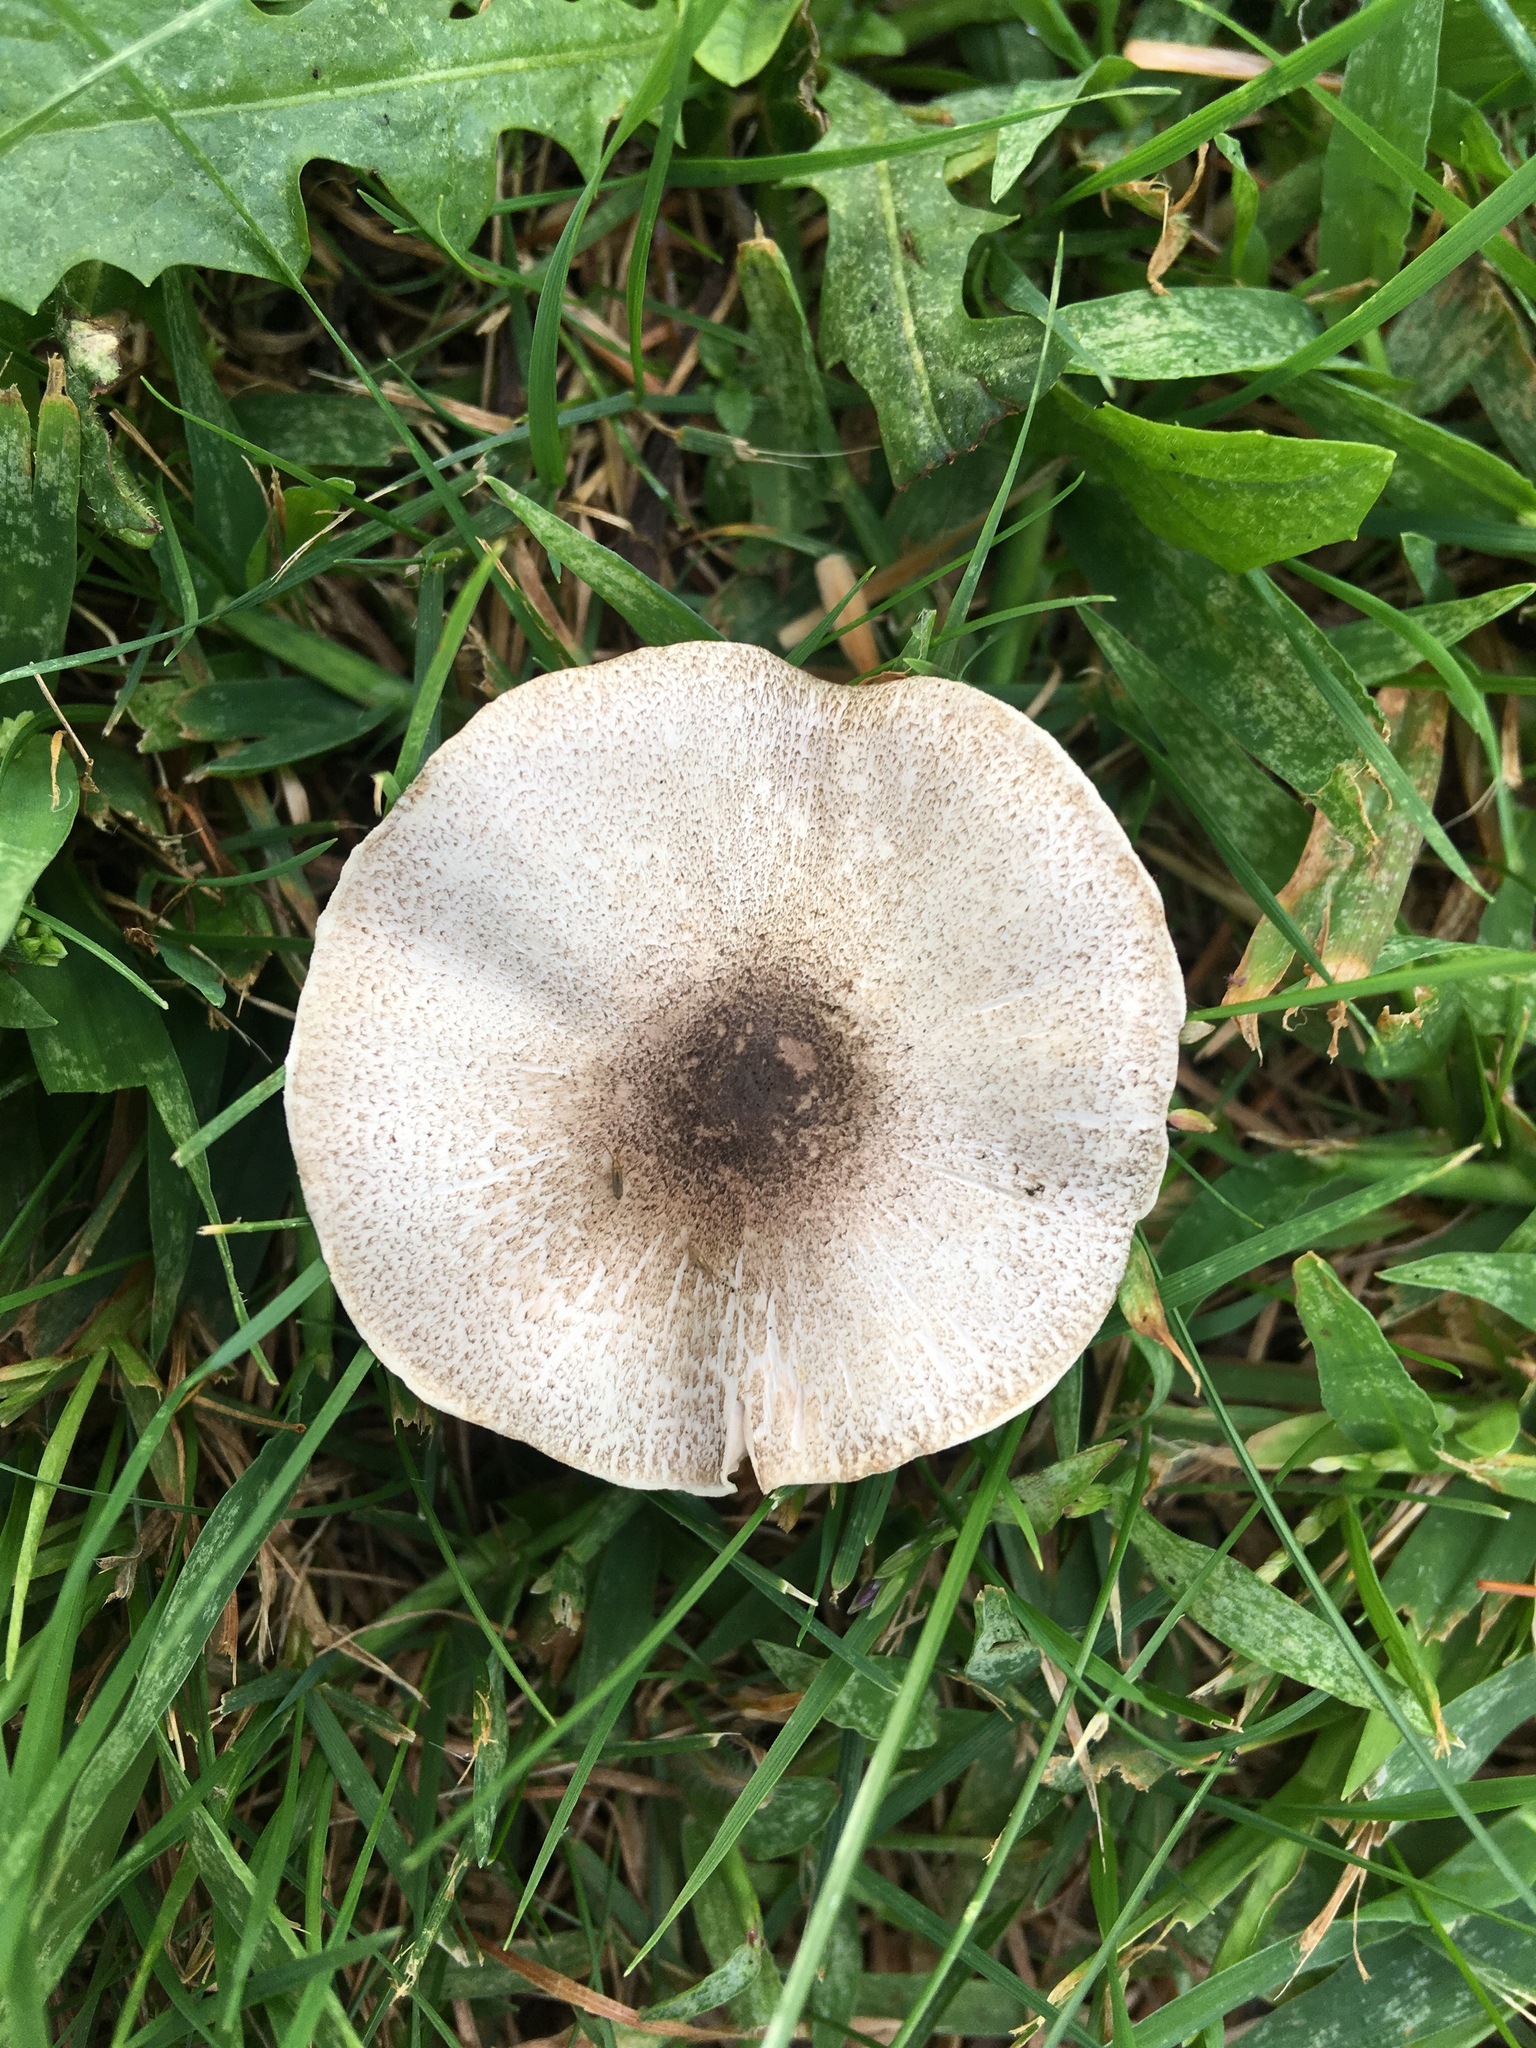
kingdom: Fungi
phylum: Basidiomycota
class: Agaricomycetes
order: Agaricales
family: Agaricaceae
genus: Agaricus
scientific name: Agaricus placomyces
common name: Inky mushroom
